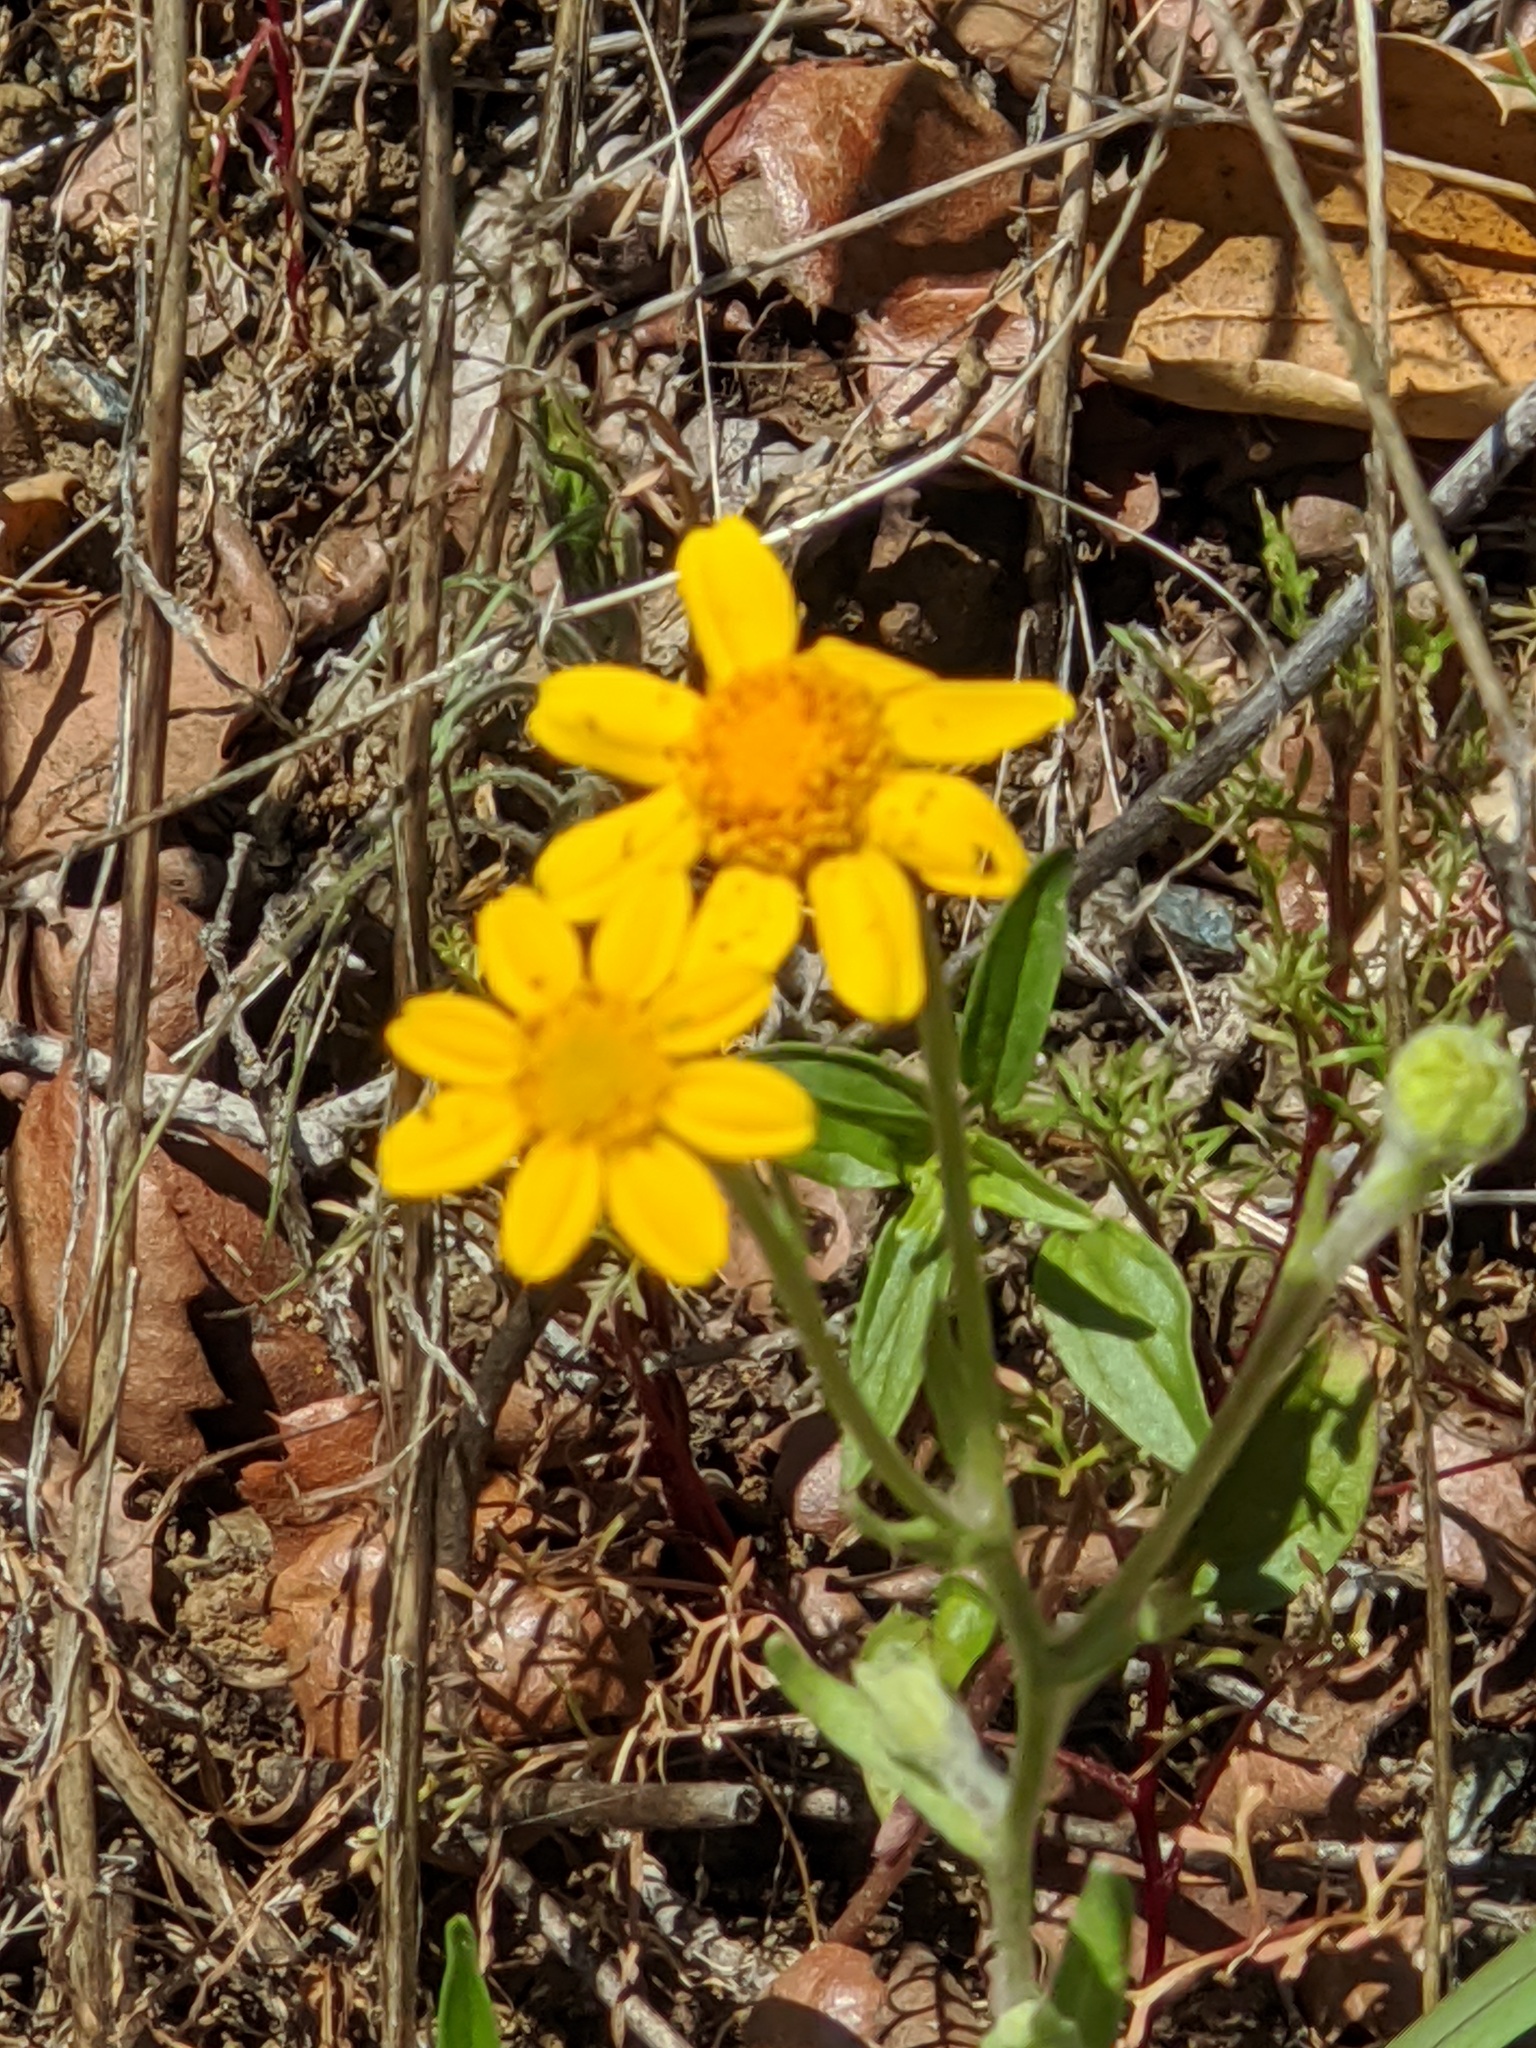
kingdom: Plantae
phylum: Tracheophyta
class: Magnoliopsida
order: Asterales
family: Asteraceae
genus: Monolopia
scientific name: Monolopia gracilens
